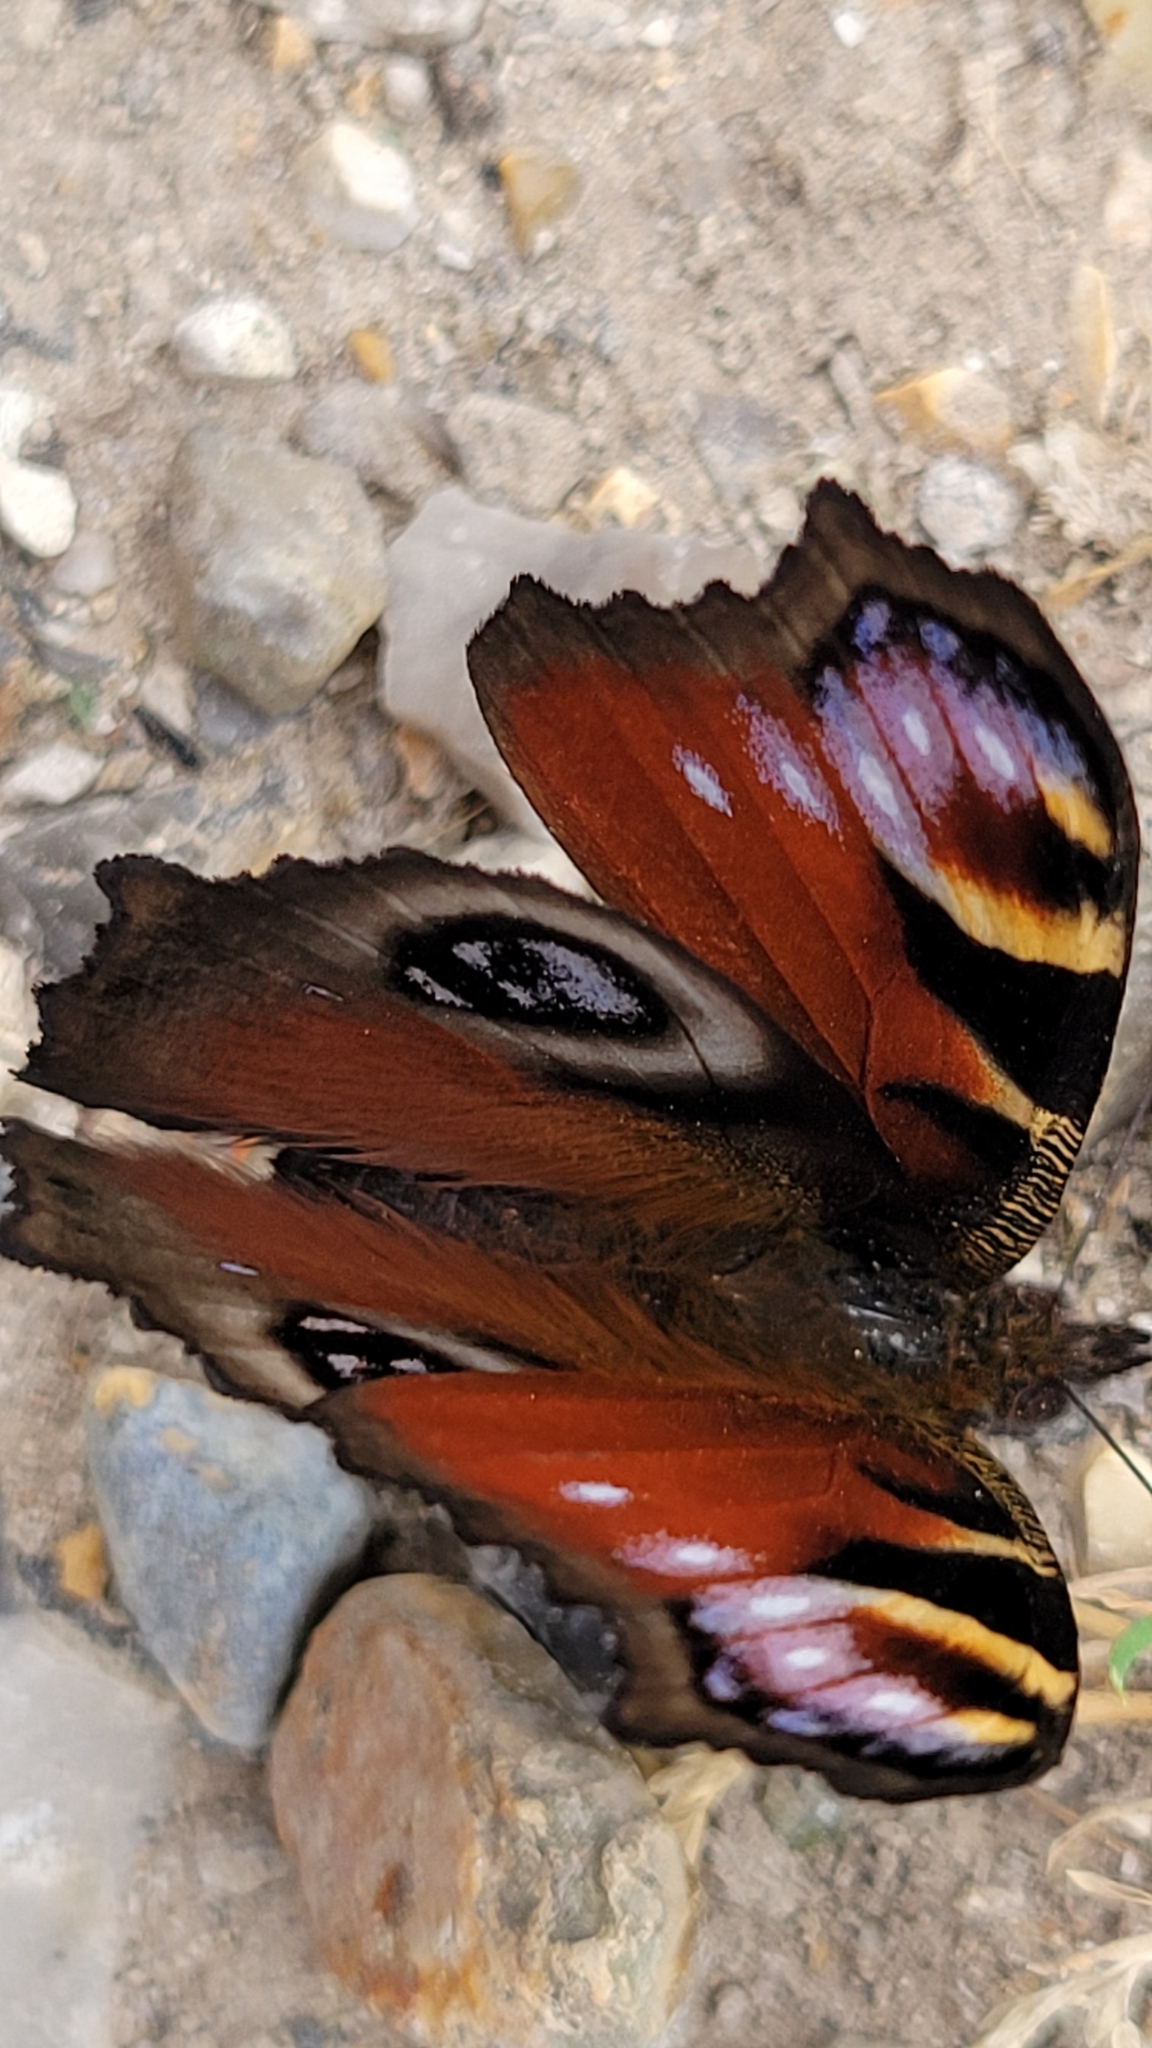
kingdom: Animalia
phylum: Arthropoda
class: Insecta
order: Lepidoptera
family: Nymphalidae
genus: Aglais
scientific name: Aglais io
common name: Peacock
